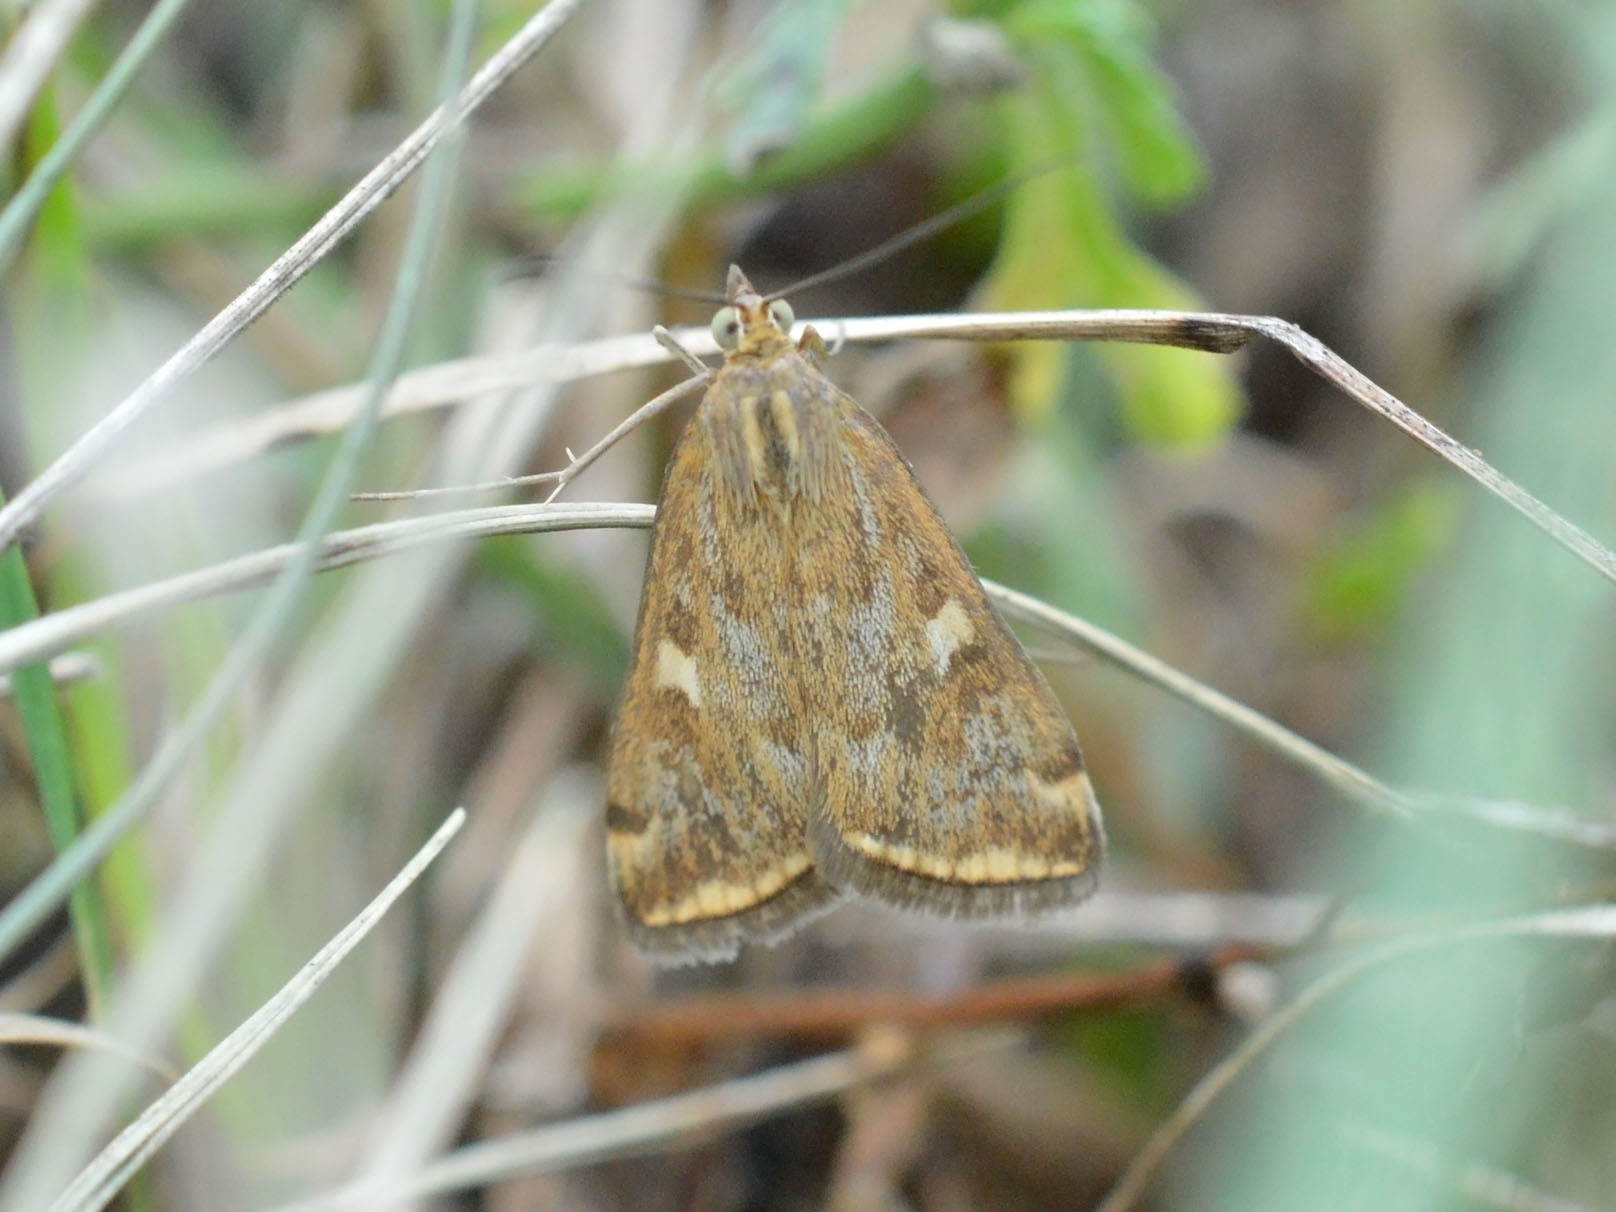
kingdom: Animalia
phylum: Arthropoda
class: Insecta
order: Lepidoptera
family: Crambidae
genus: Loxostege
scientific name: Loxostege sticticalis
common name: Crambid moth
